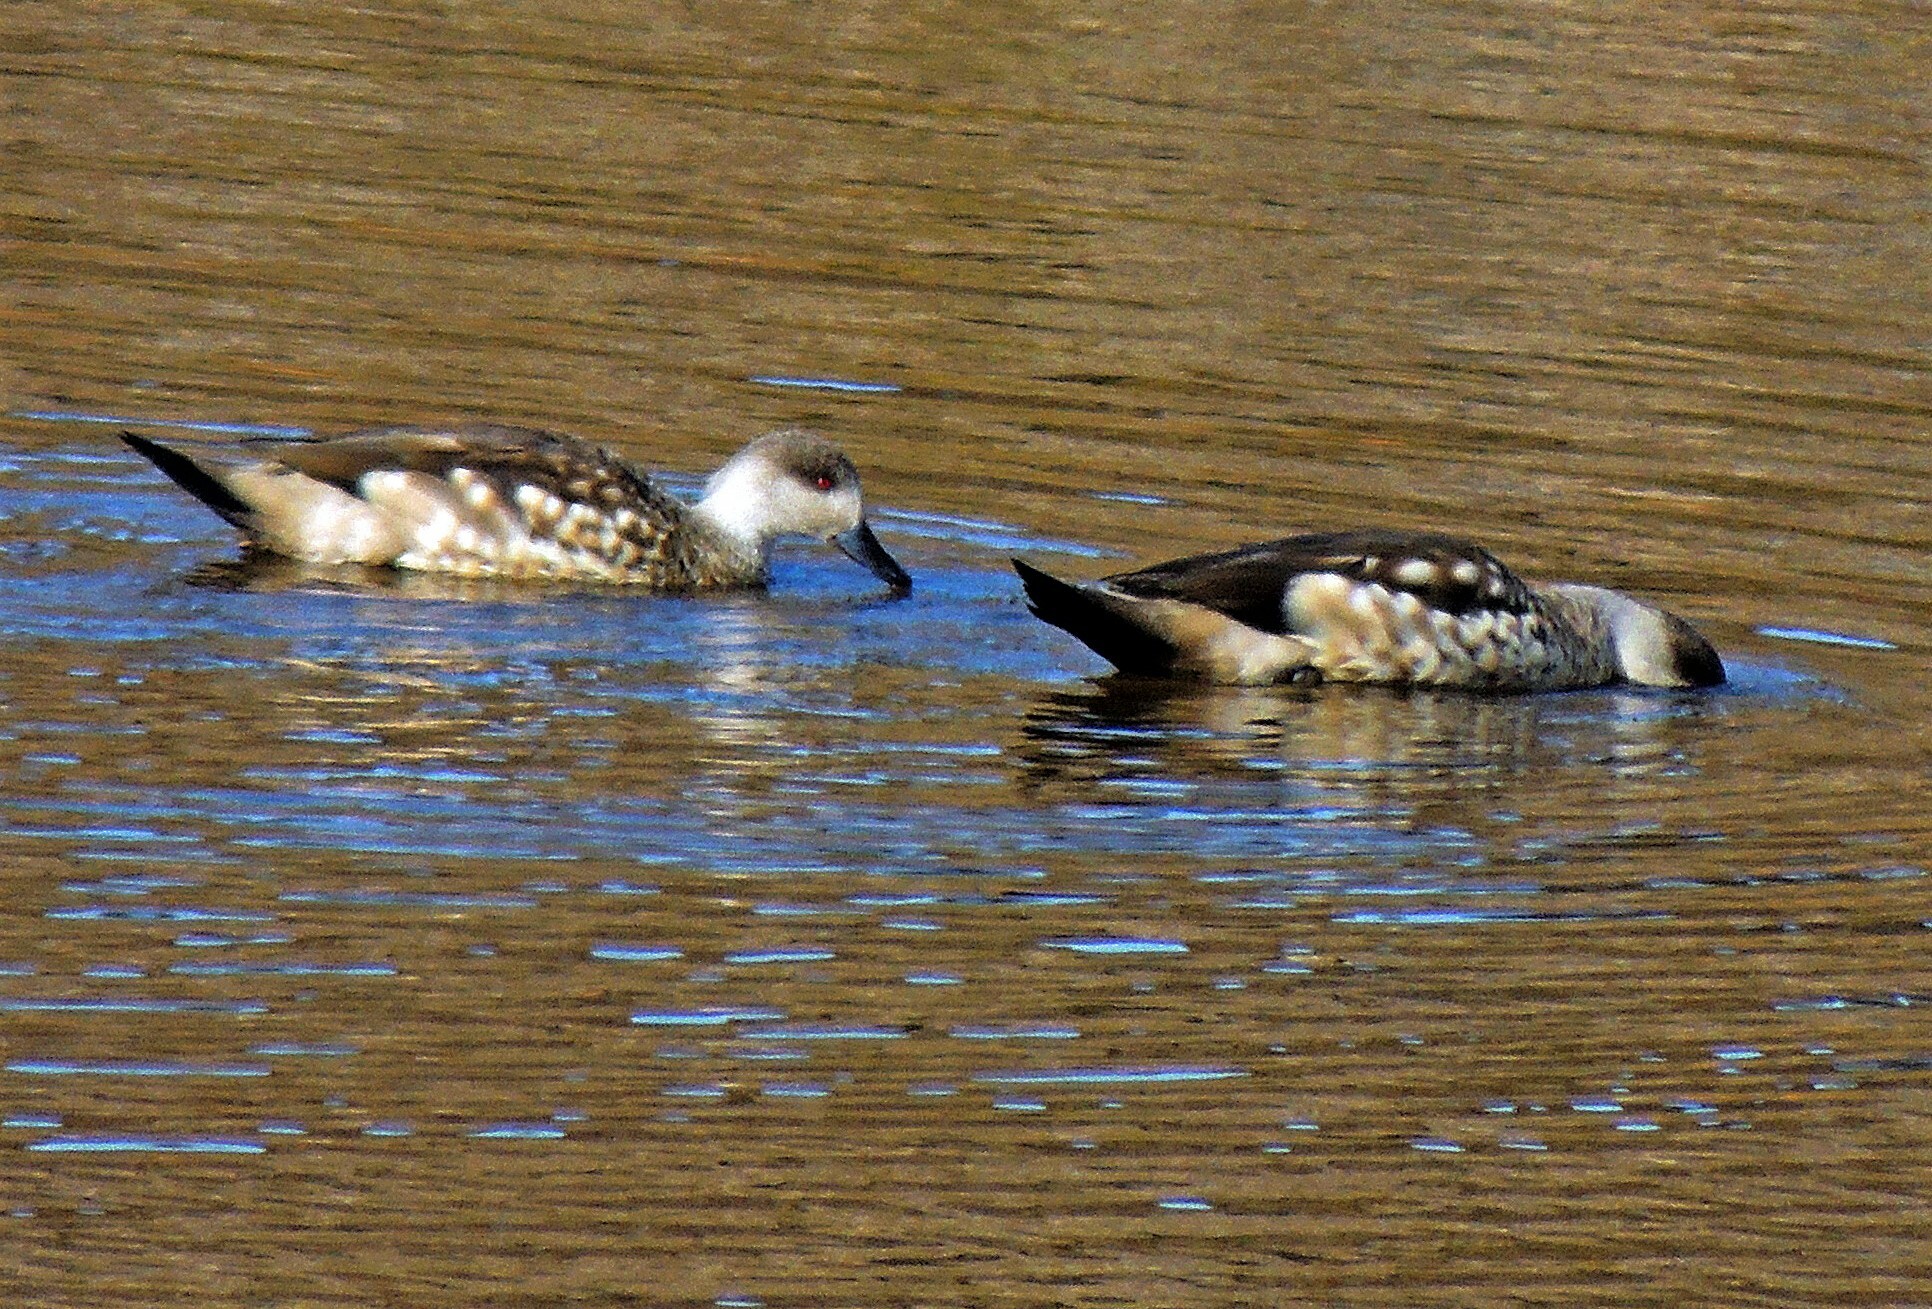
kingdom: Animalia
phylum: Chordata
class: Aves
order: Anseriformes
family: Anatidae
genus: Lophonetta
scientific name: Lophonetta specularioides
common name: Crested duck
